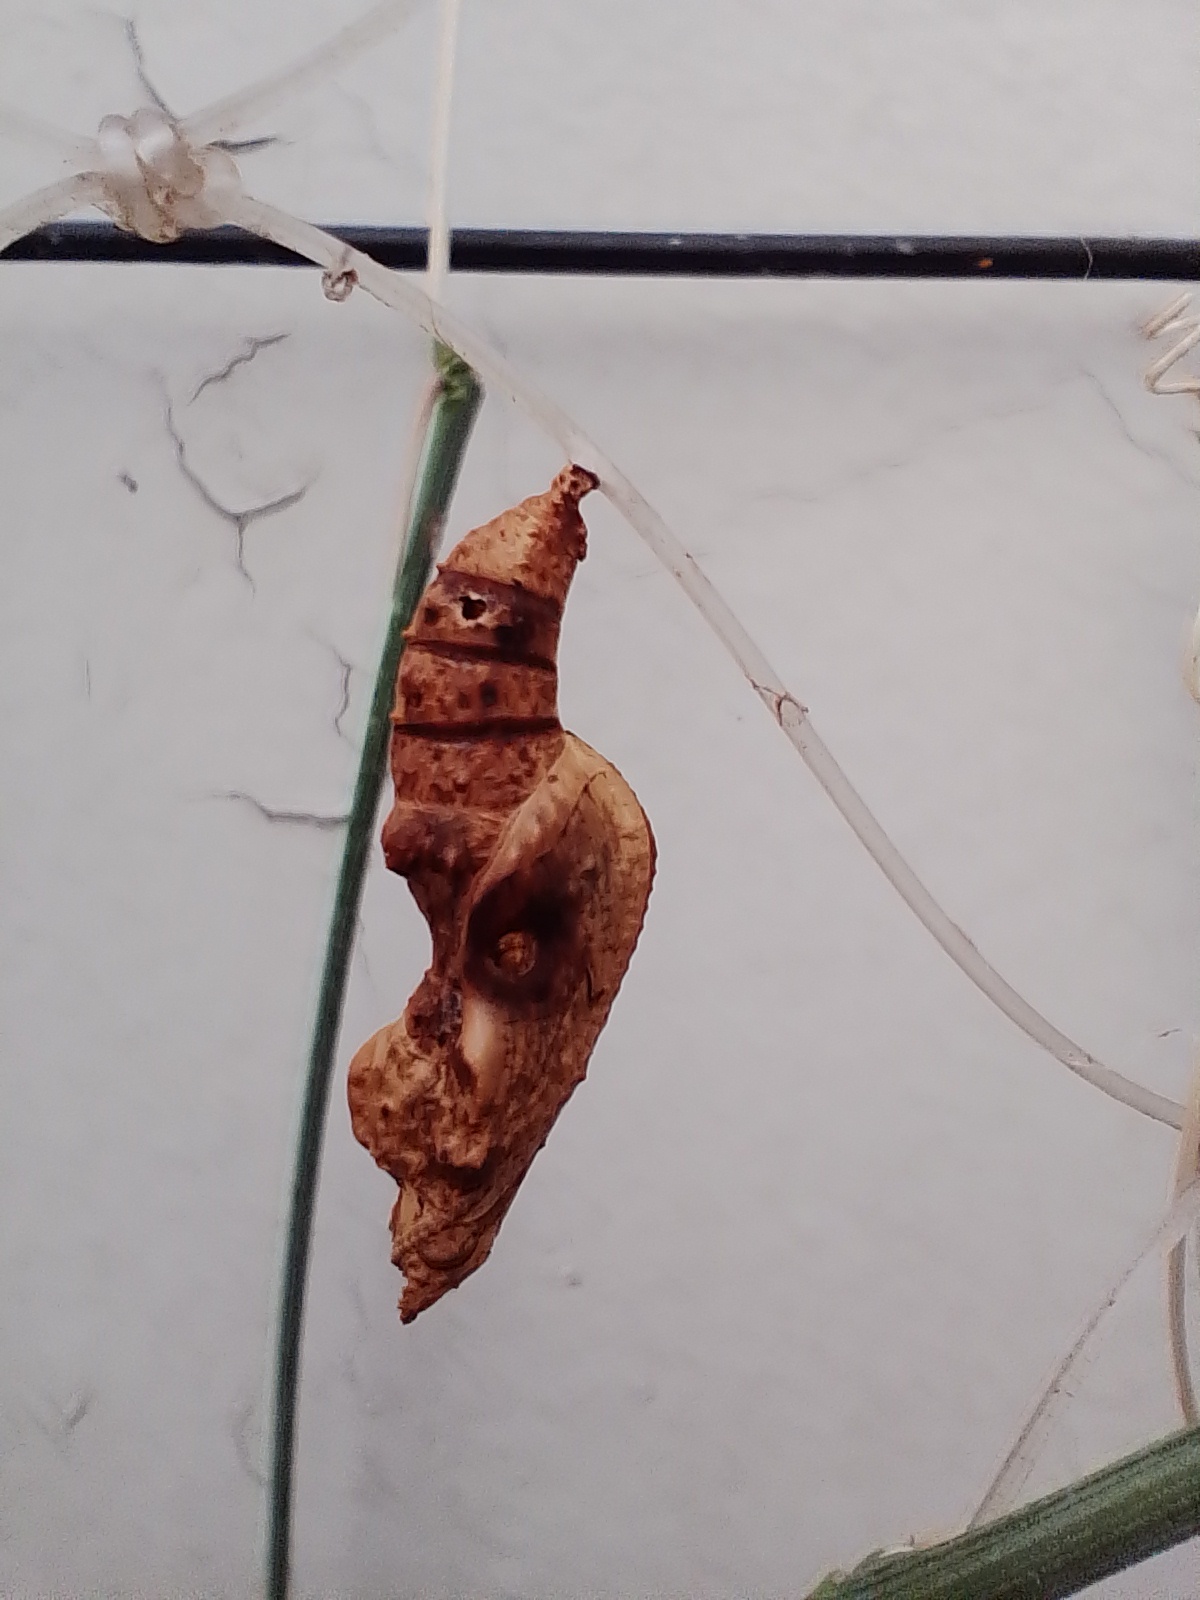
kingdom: Animalia
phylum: Arthropoda
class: Insecta
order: Lepidoptera
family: Nymphalidae
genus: Dione
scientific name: Dione vanillae
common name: Gulf fritillary
